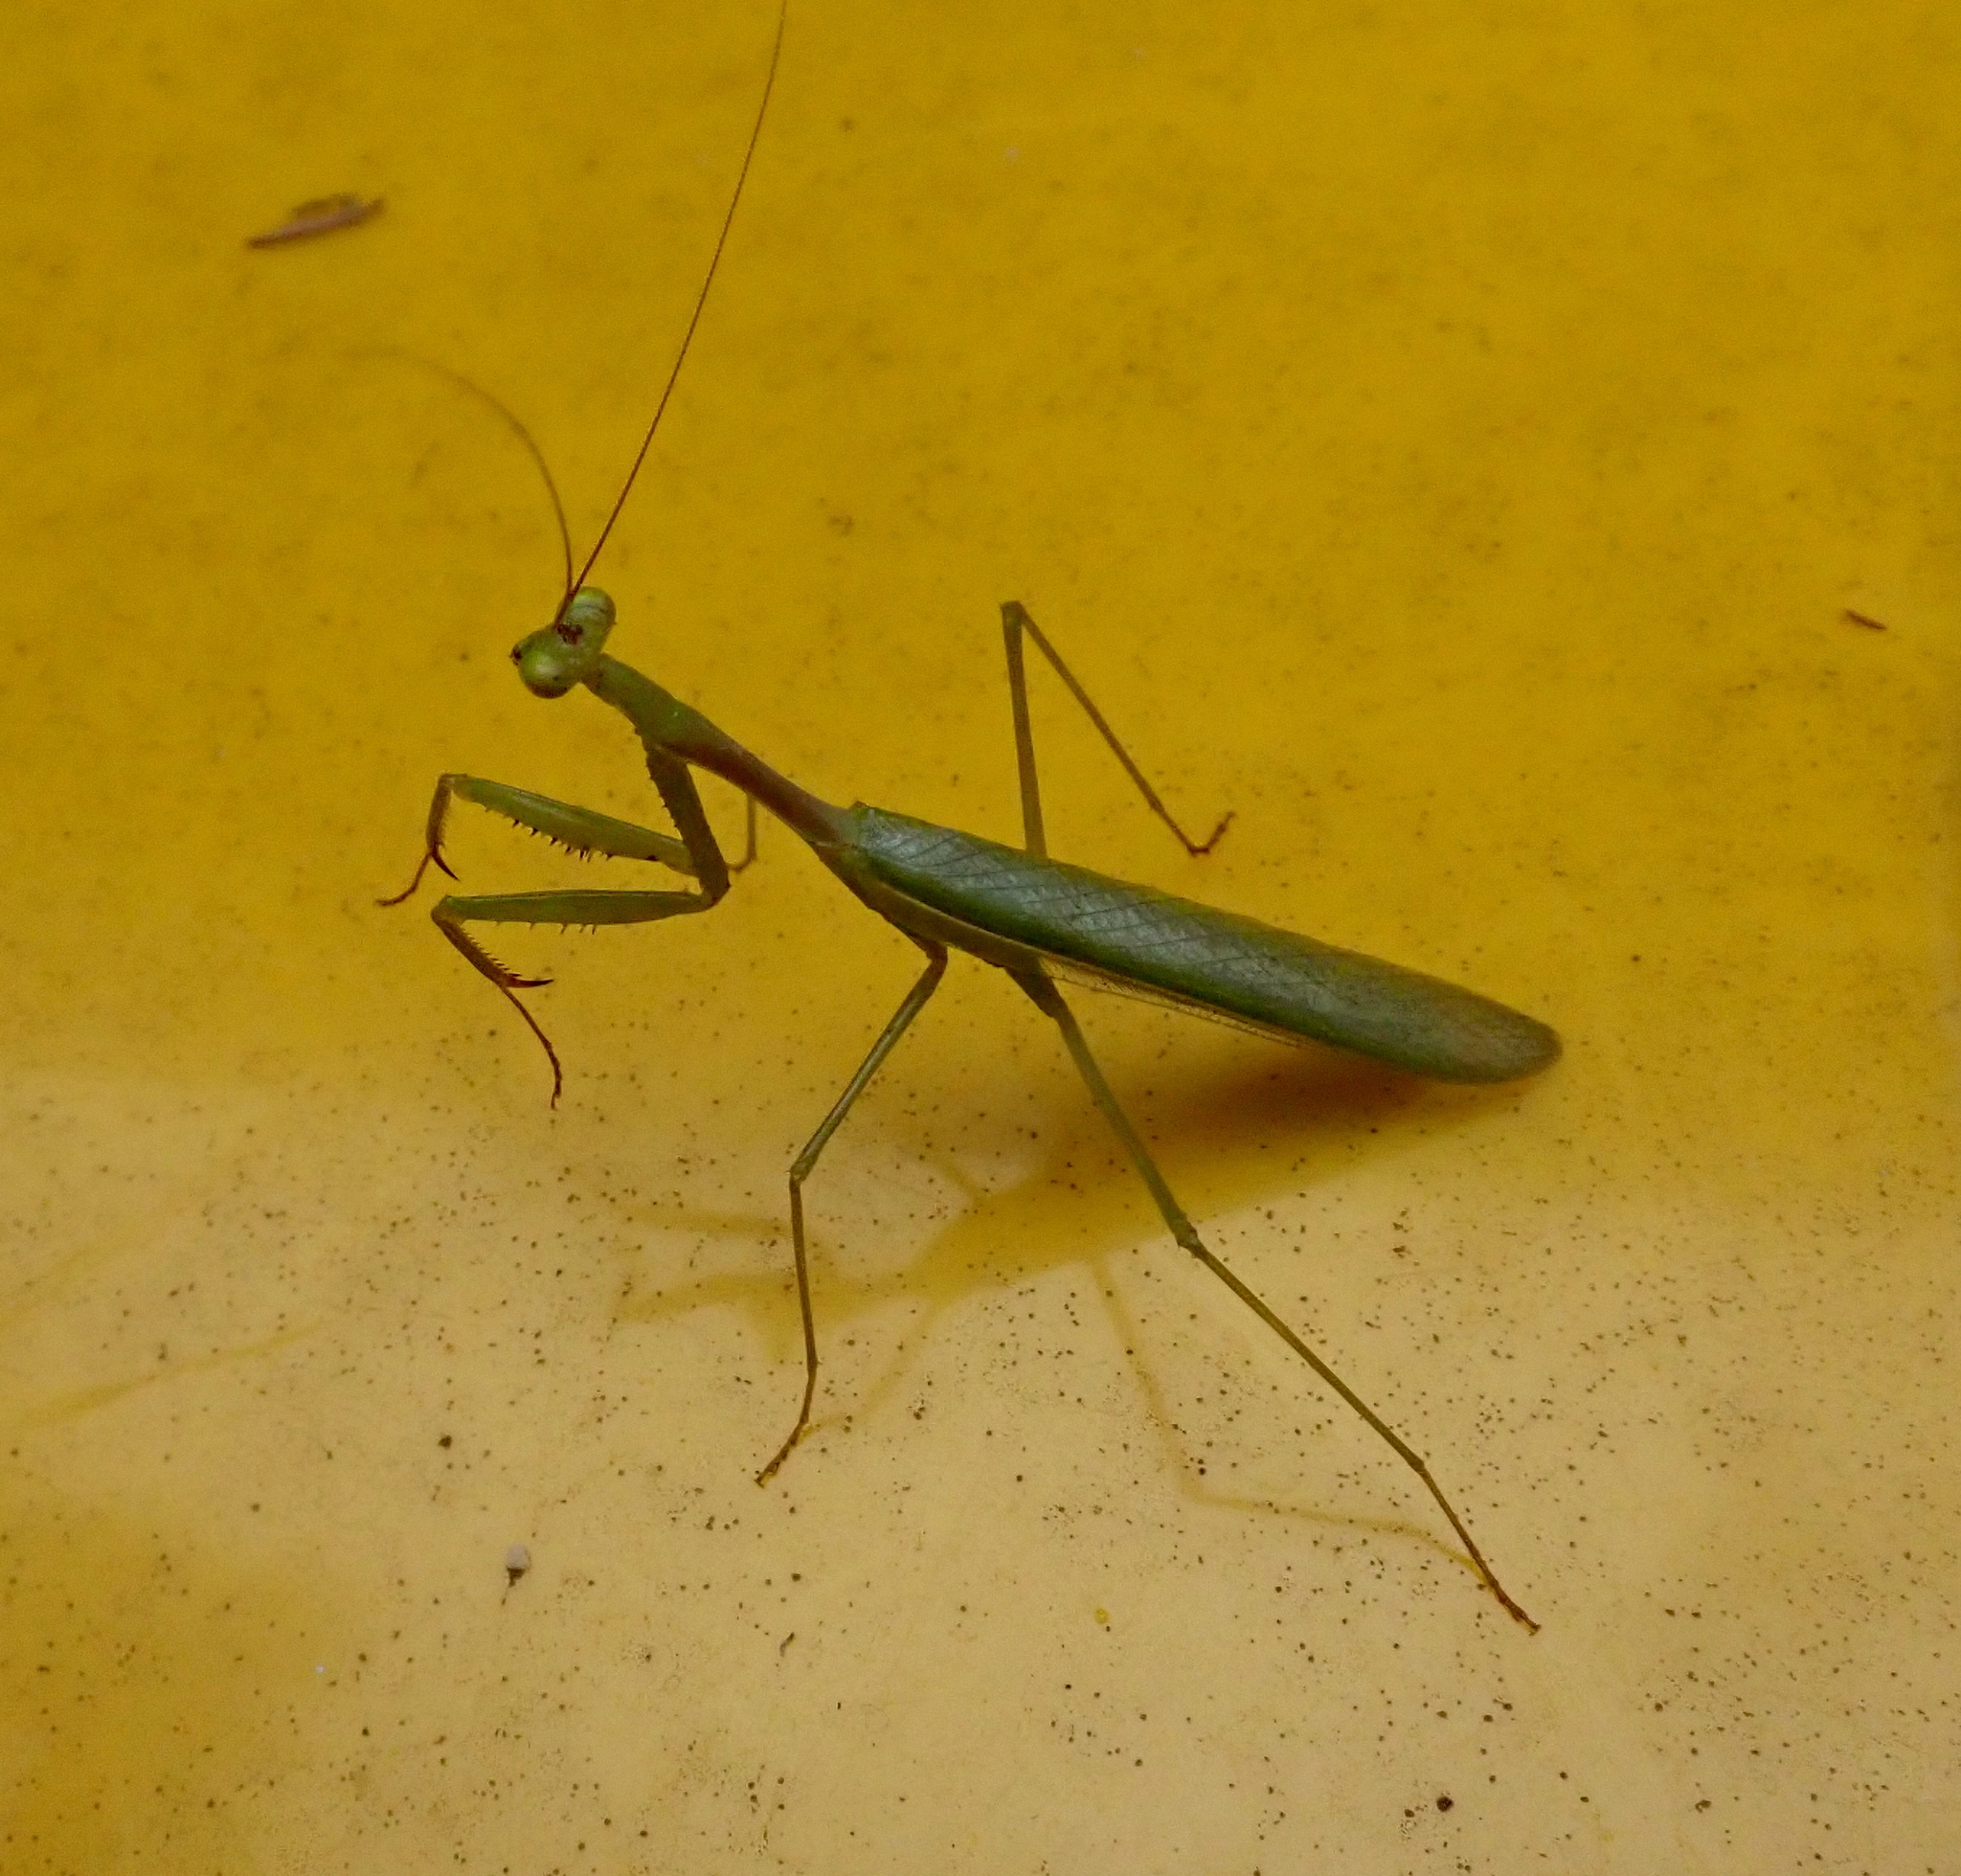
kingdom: Animalia
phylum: Arthropoda
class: Insecta
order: Mantodea
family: Miomantidae
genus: Miomantis
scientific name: Miomantis caffra
